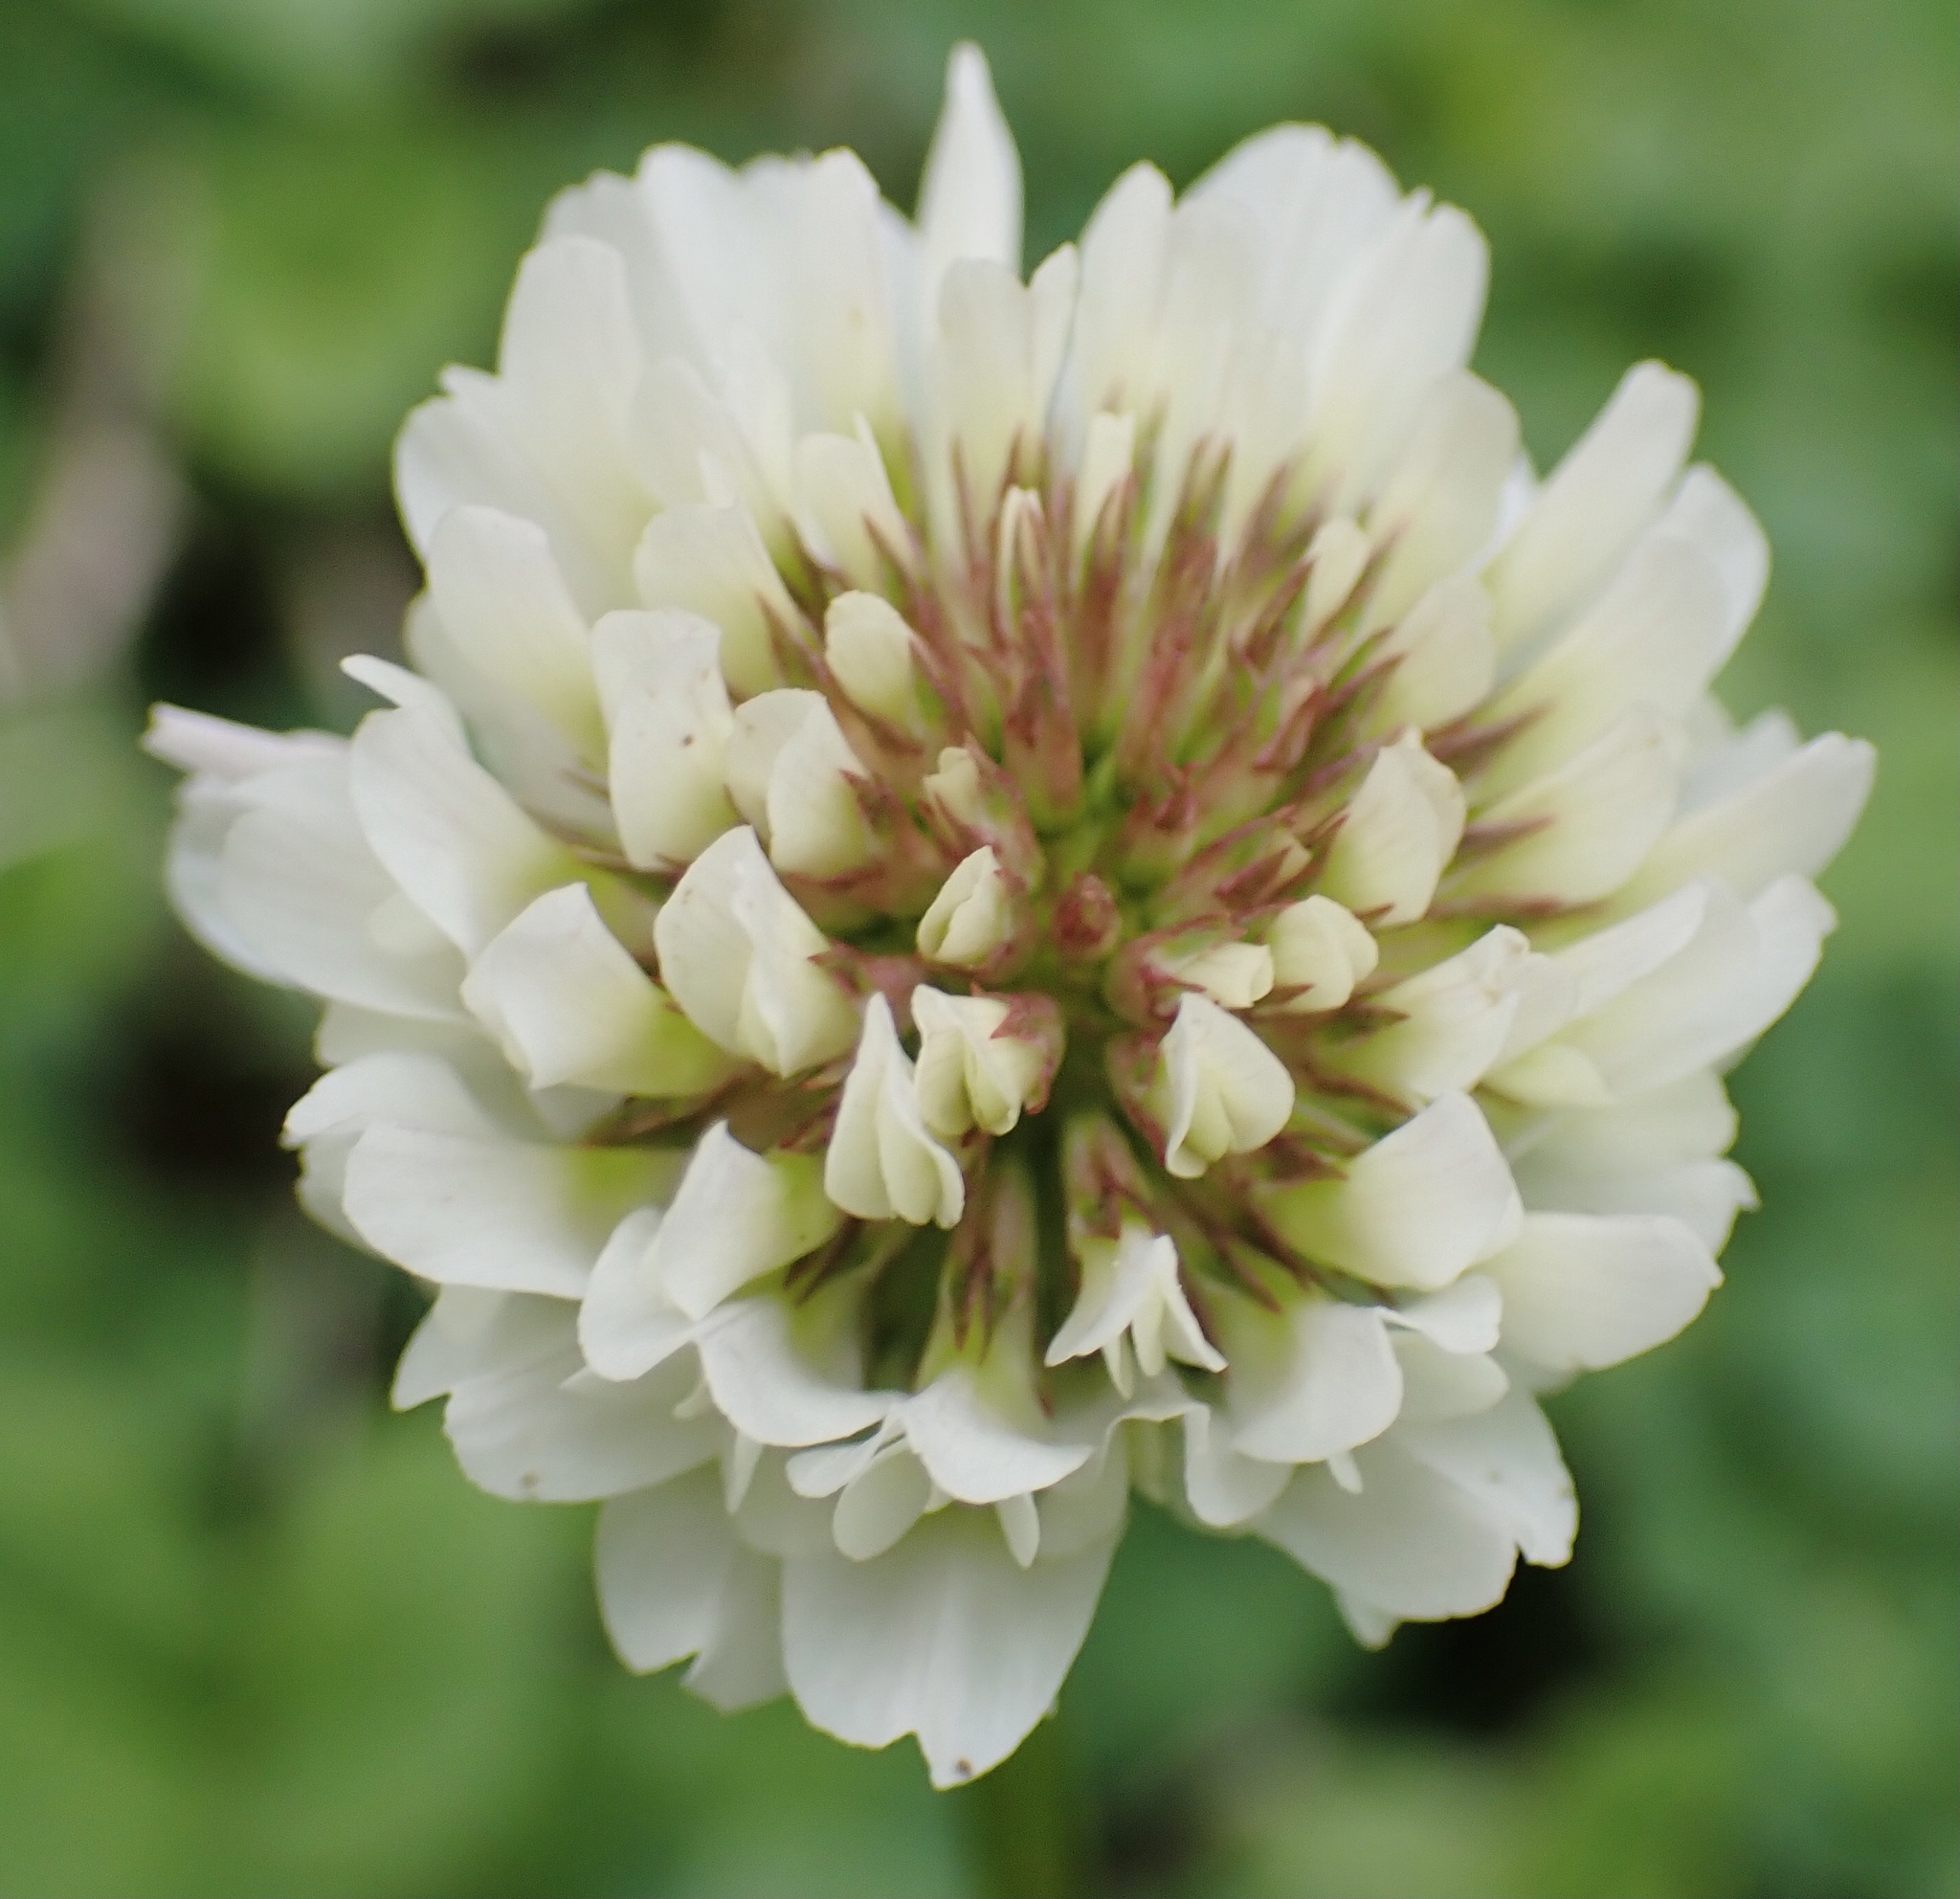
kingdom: Plantae
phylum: Tracheophyta
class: Magnoliopsida
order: Fabales
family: Fabaceae
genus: Trifolium
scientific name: Trifolium repens
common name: White clover
